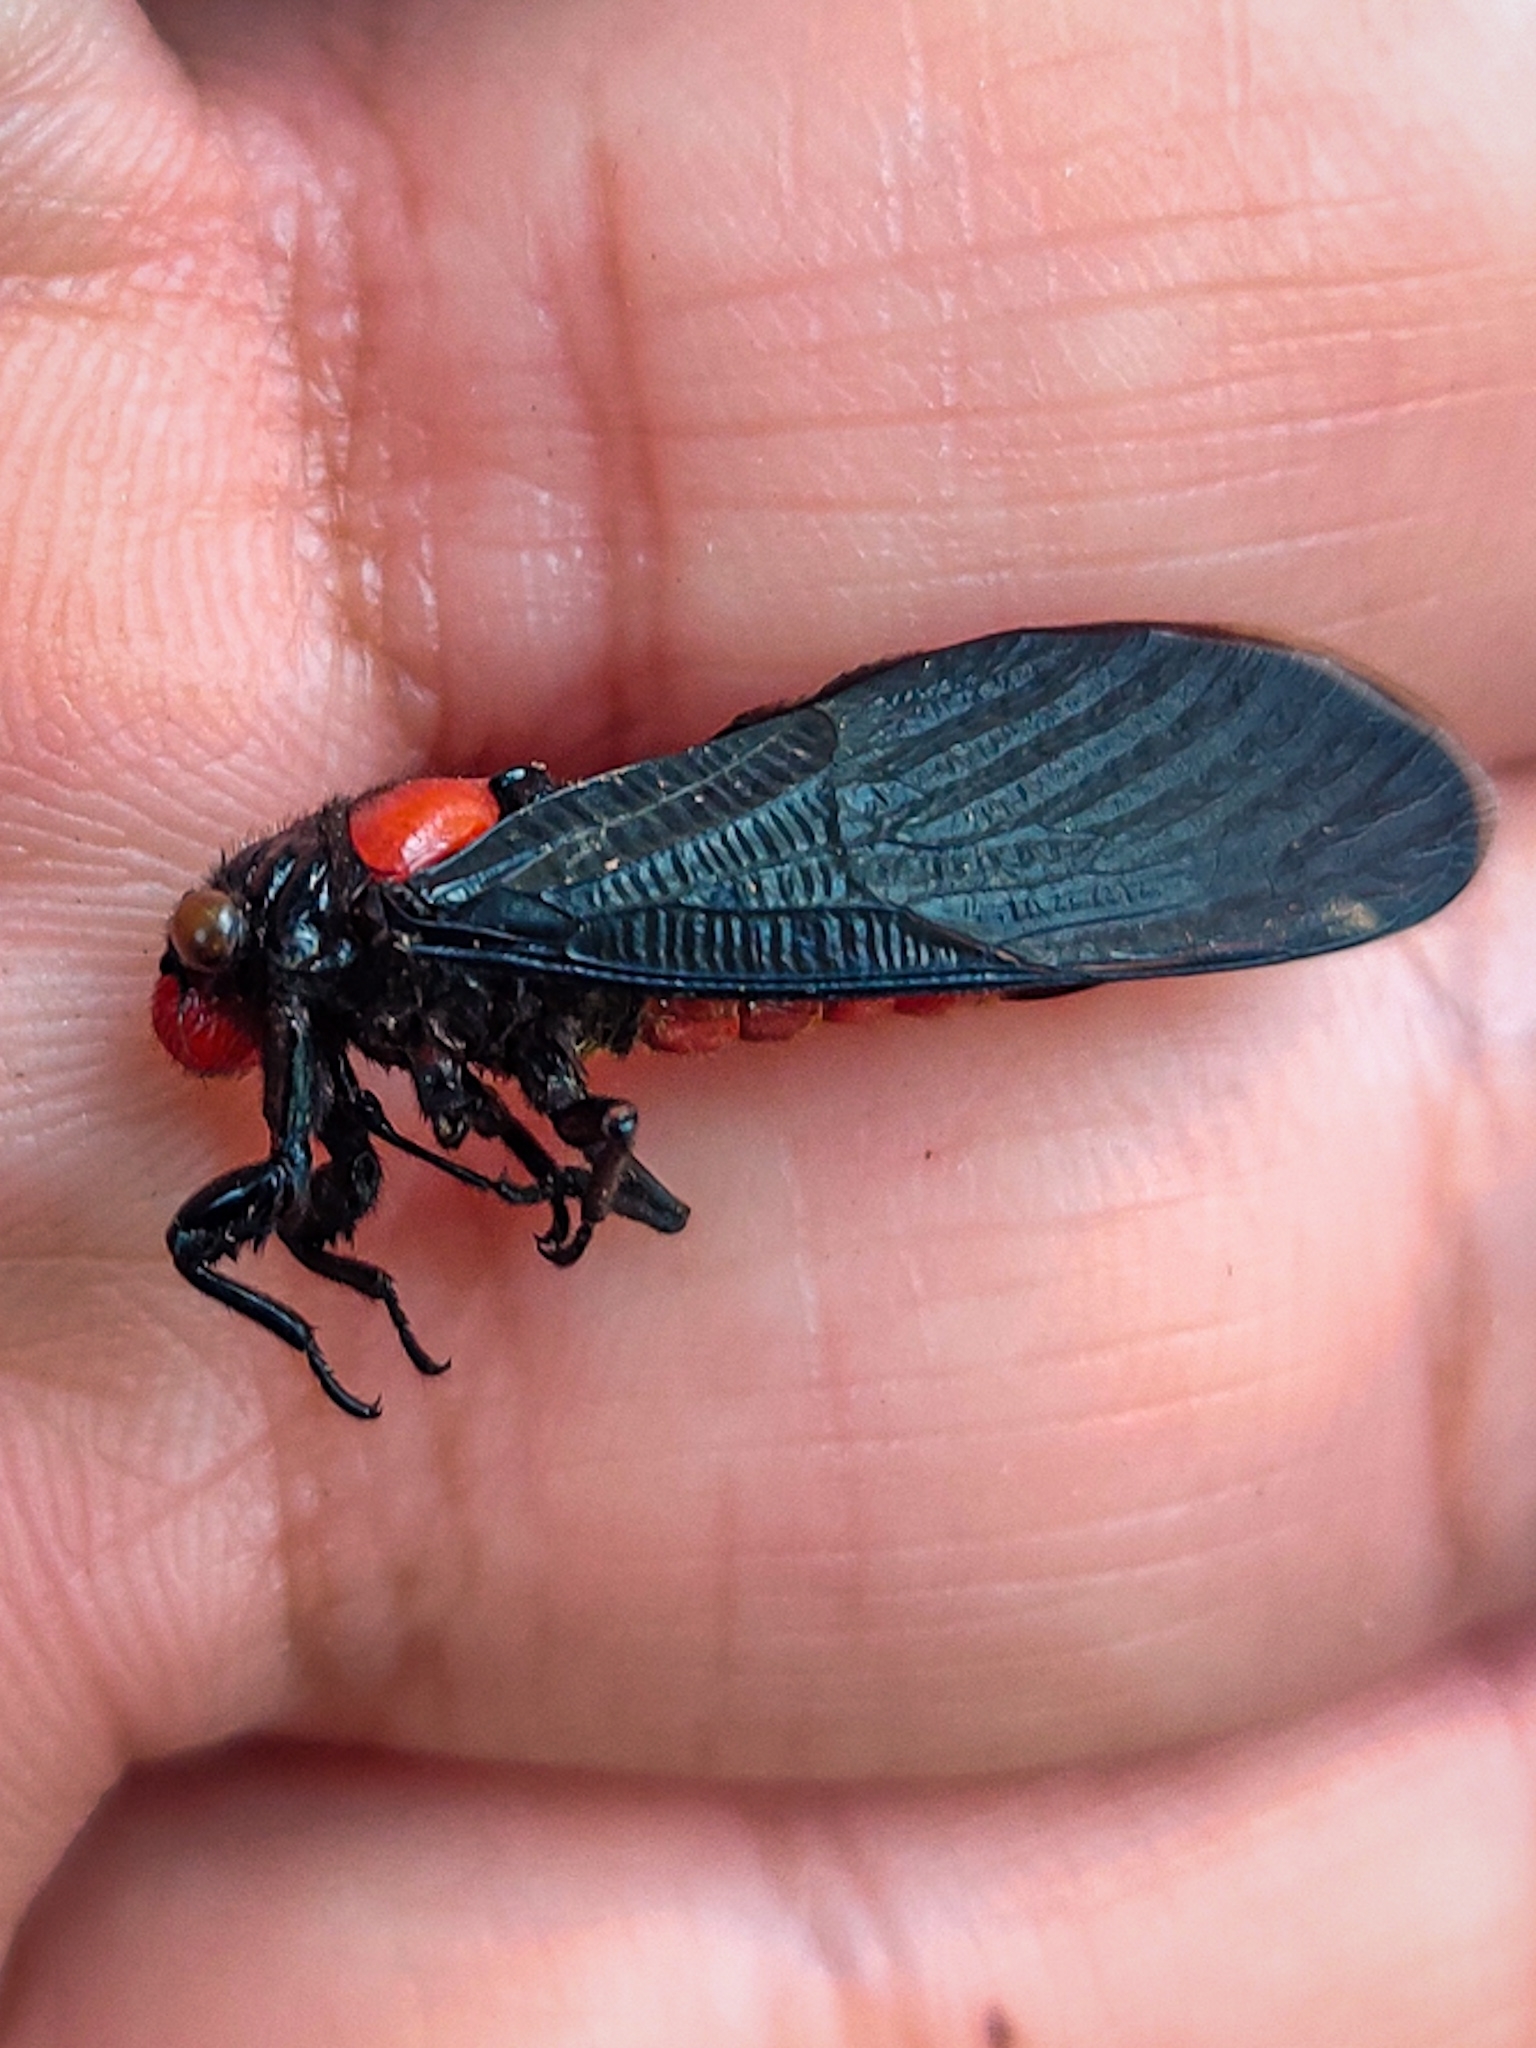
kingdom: Animalia
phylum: Arthropoda
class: Insecta
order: Hemiptera
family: Cicadidae
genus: Huechys
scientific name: Huechys beata
